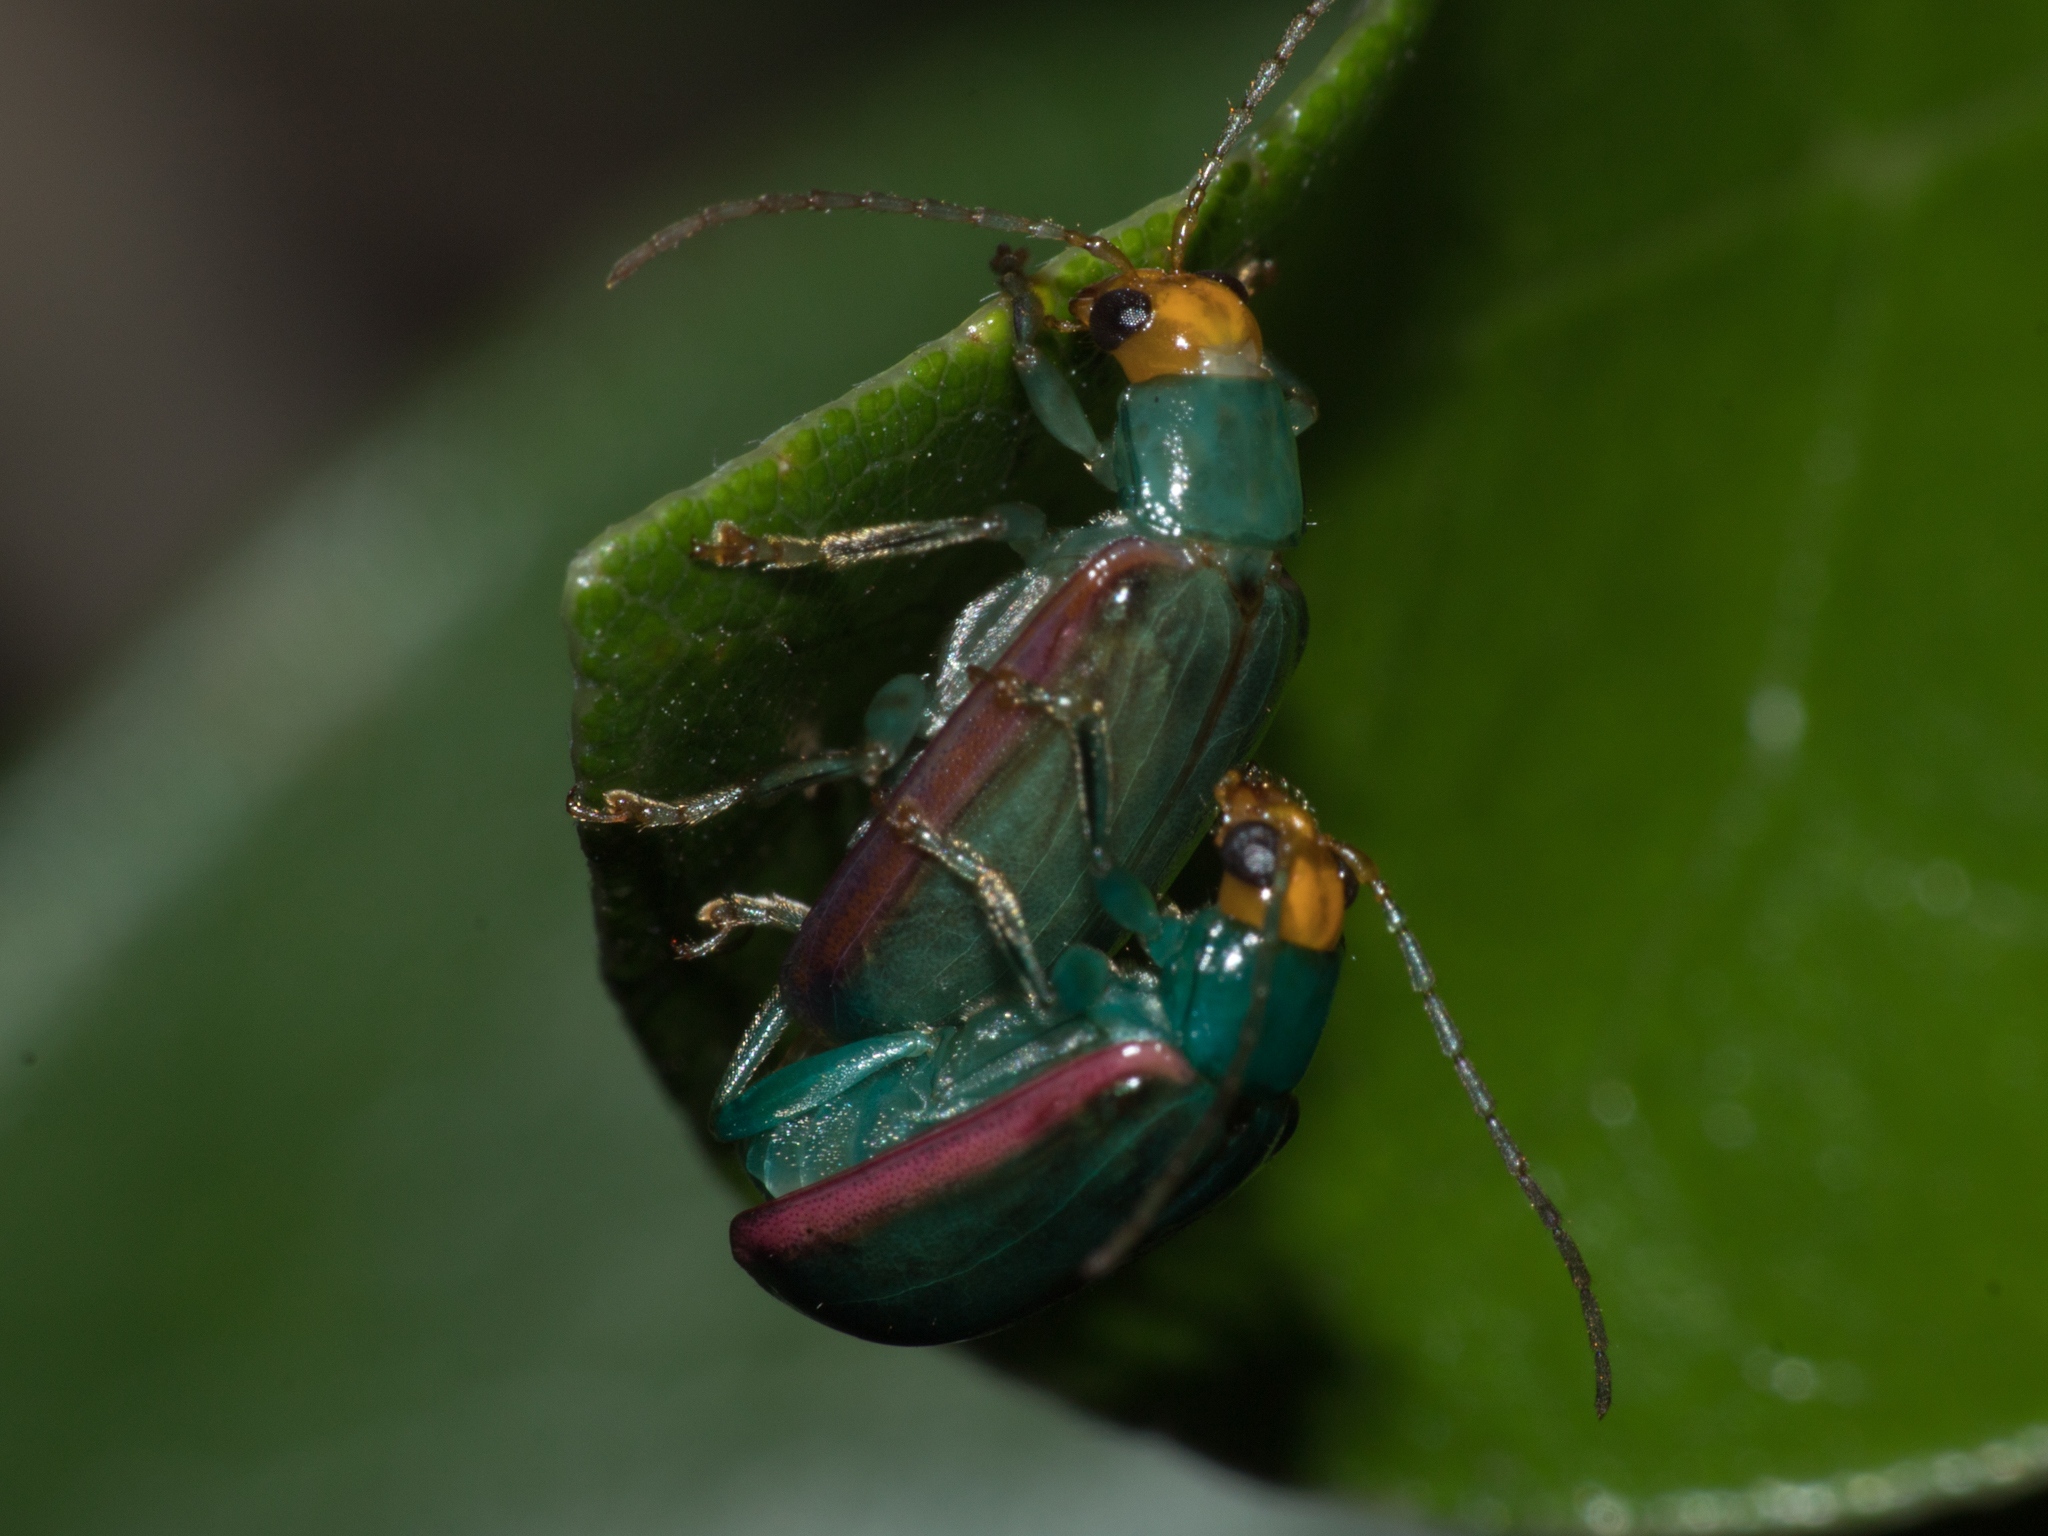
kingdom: Animalia
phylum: Arthropoda
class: Insecta
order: Coleoptera
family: Chrysomelidae
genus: Diabrotica
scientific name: Diabrotica
